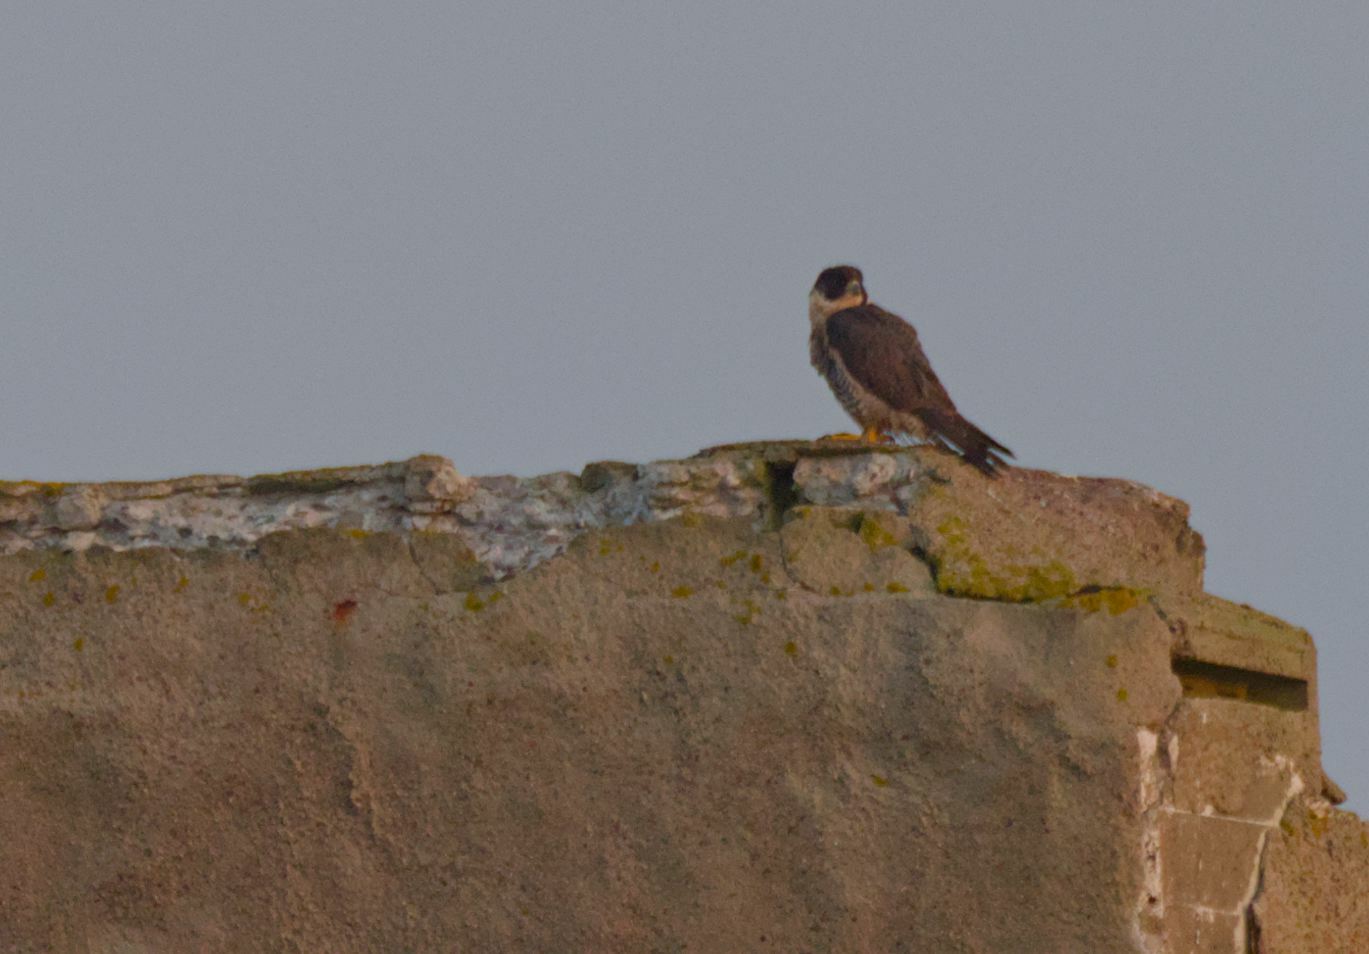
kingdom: Animalia
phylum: Chordata
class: Aves
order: Falconiformes
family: Falconidae
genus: Falco
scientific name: Falco peregrinus
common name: Peregrine falcon
